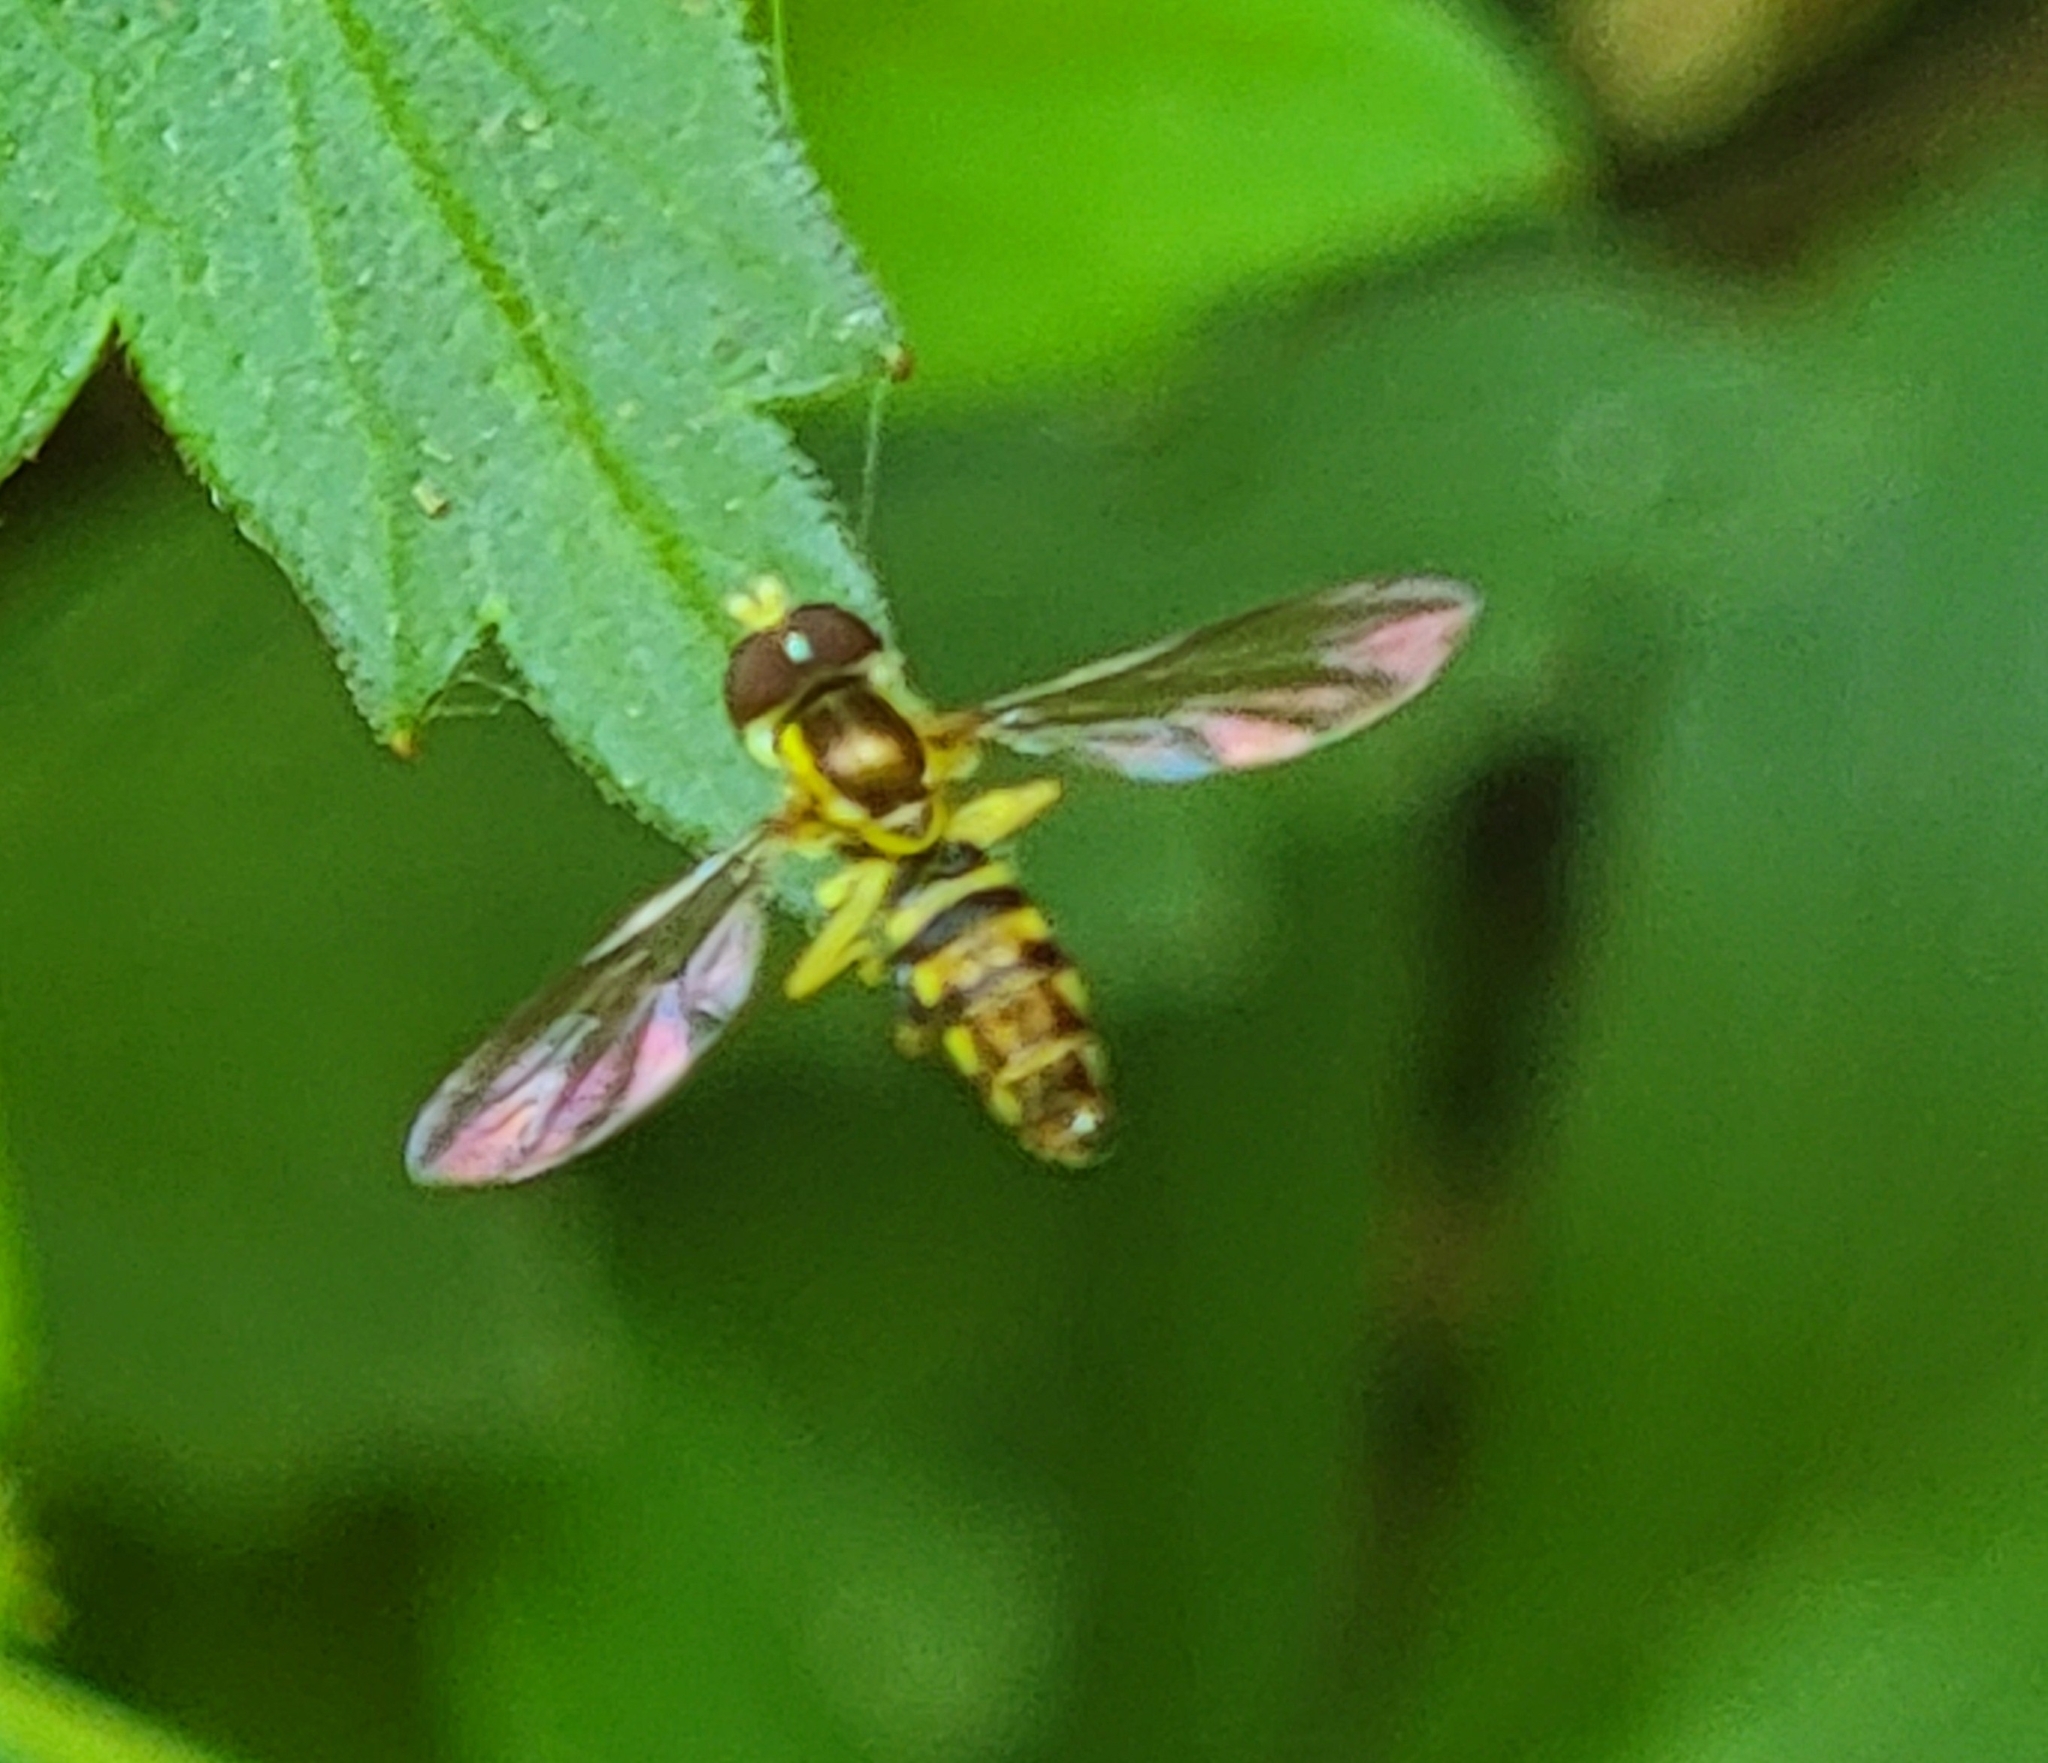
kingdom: Animalia
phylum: Arthropoda
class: Insecta
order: Diptera
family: Syrphidae
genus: Toxomerus
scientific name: Toxomerus geminatus
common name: Eastern calligrapher
